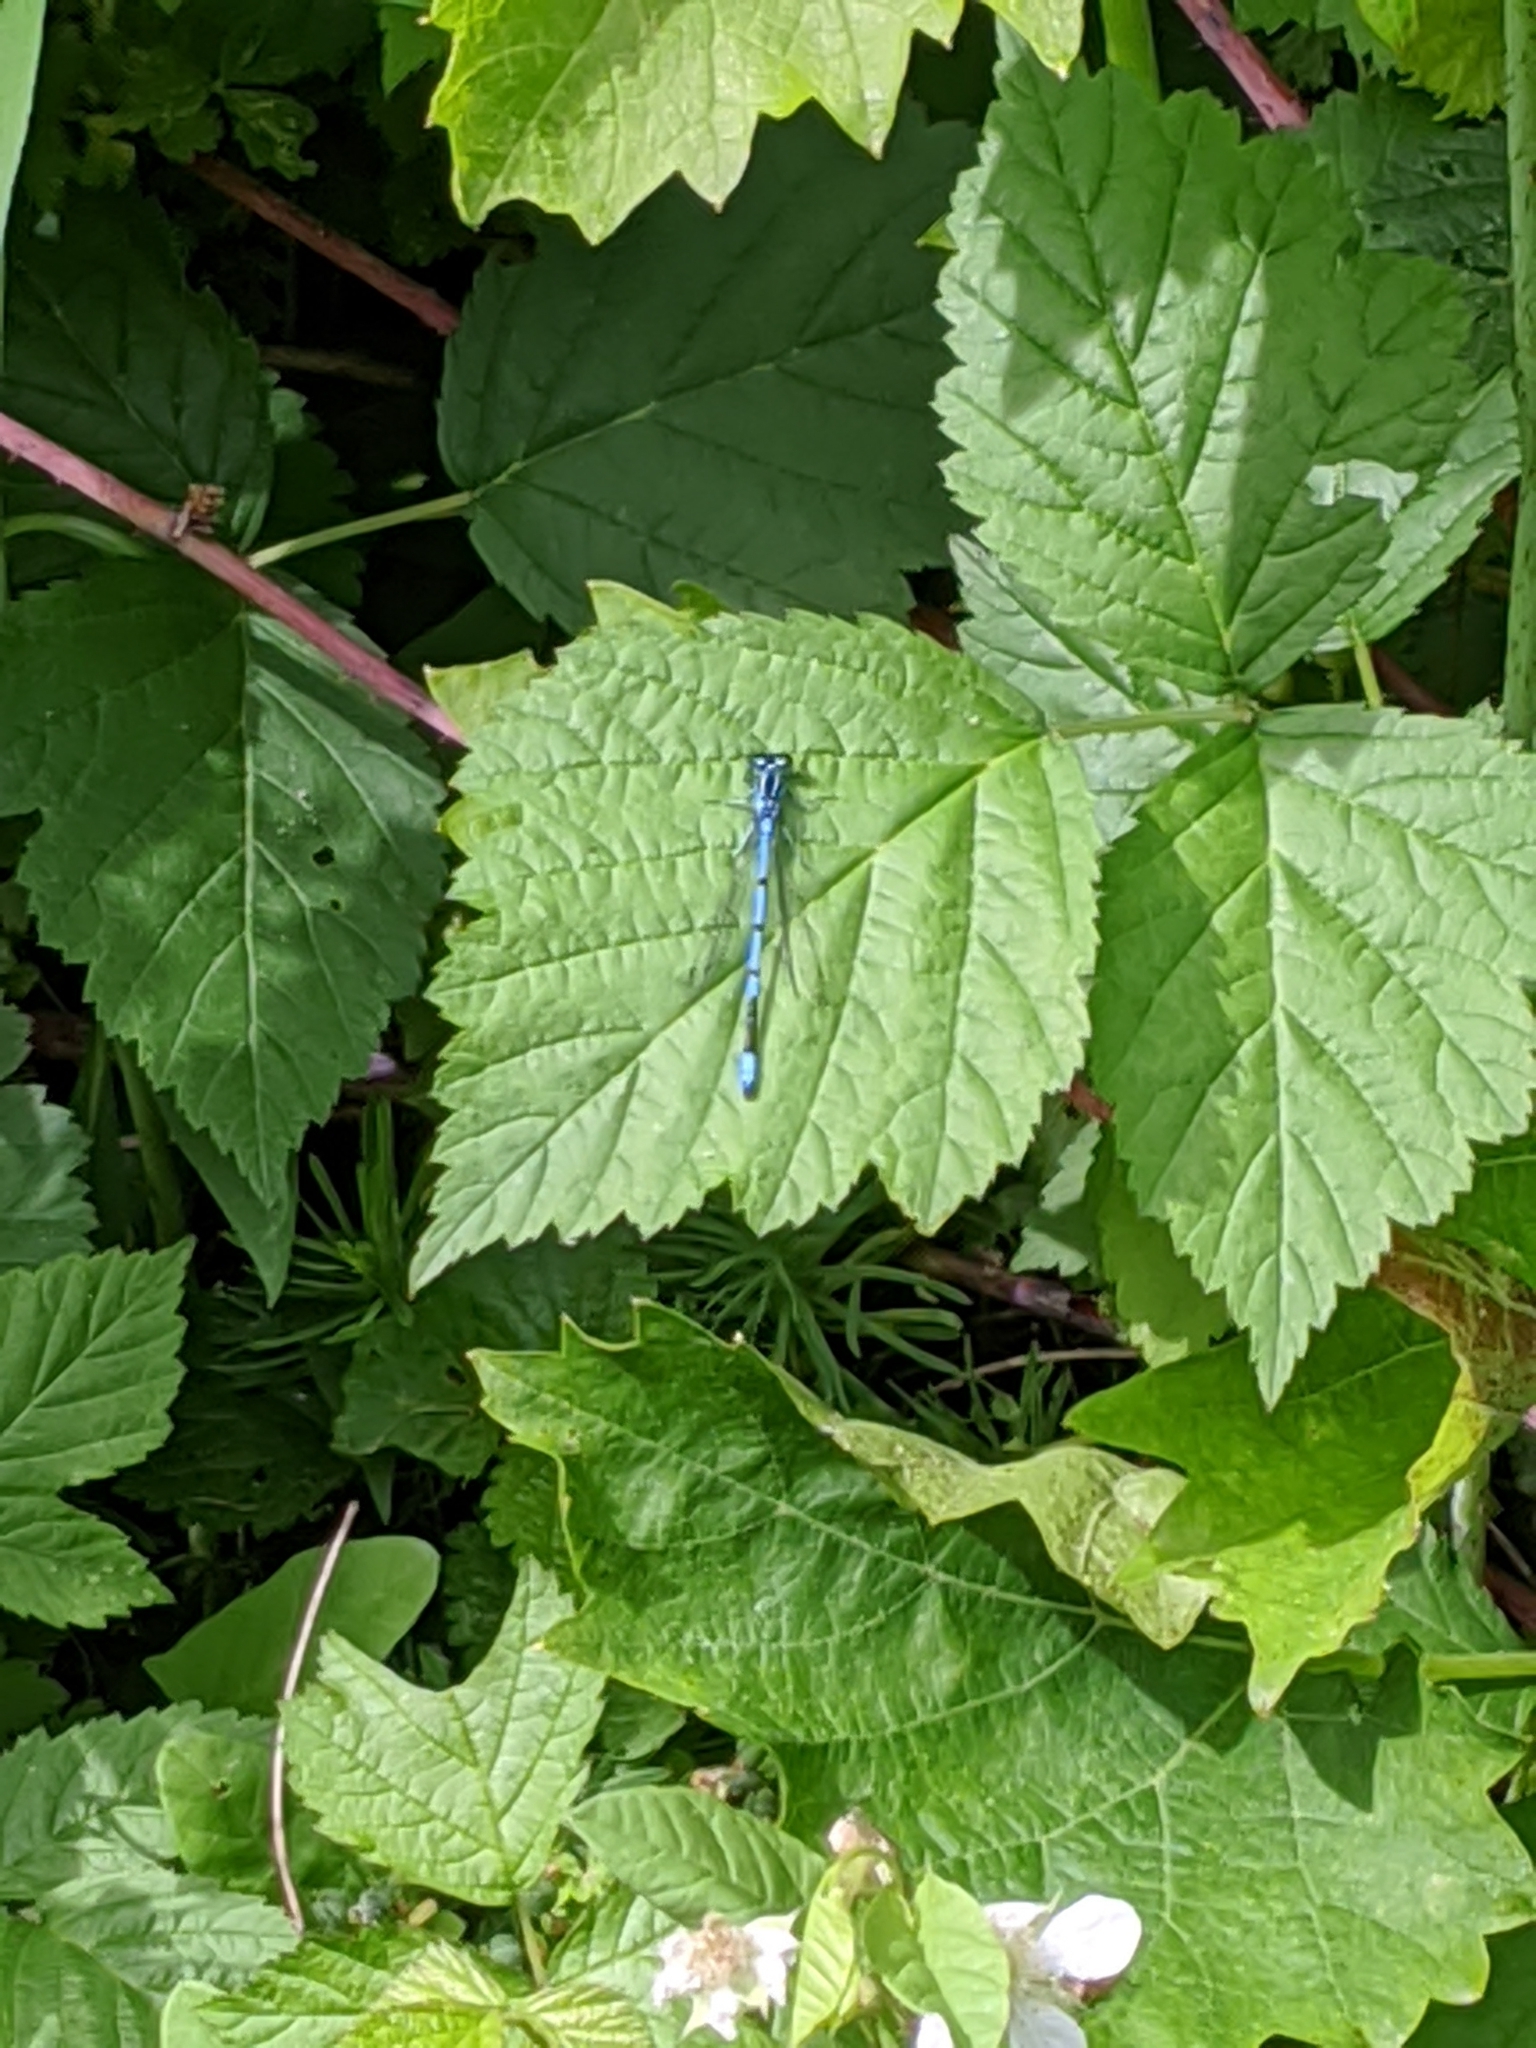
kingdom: Animalia
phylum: Arthropoda
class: Insecta
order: Odonata
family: Coenagrionidae
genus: Coenagrion
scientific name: Coenagrion puella
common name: Azure damselfly
